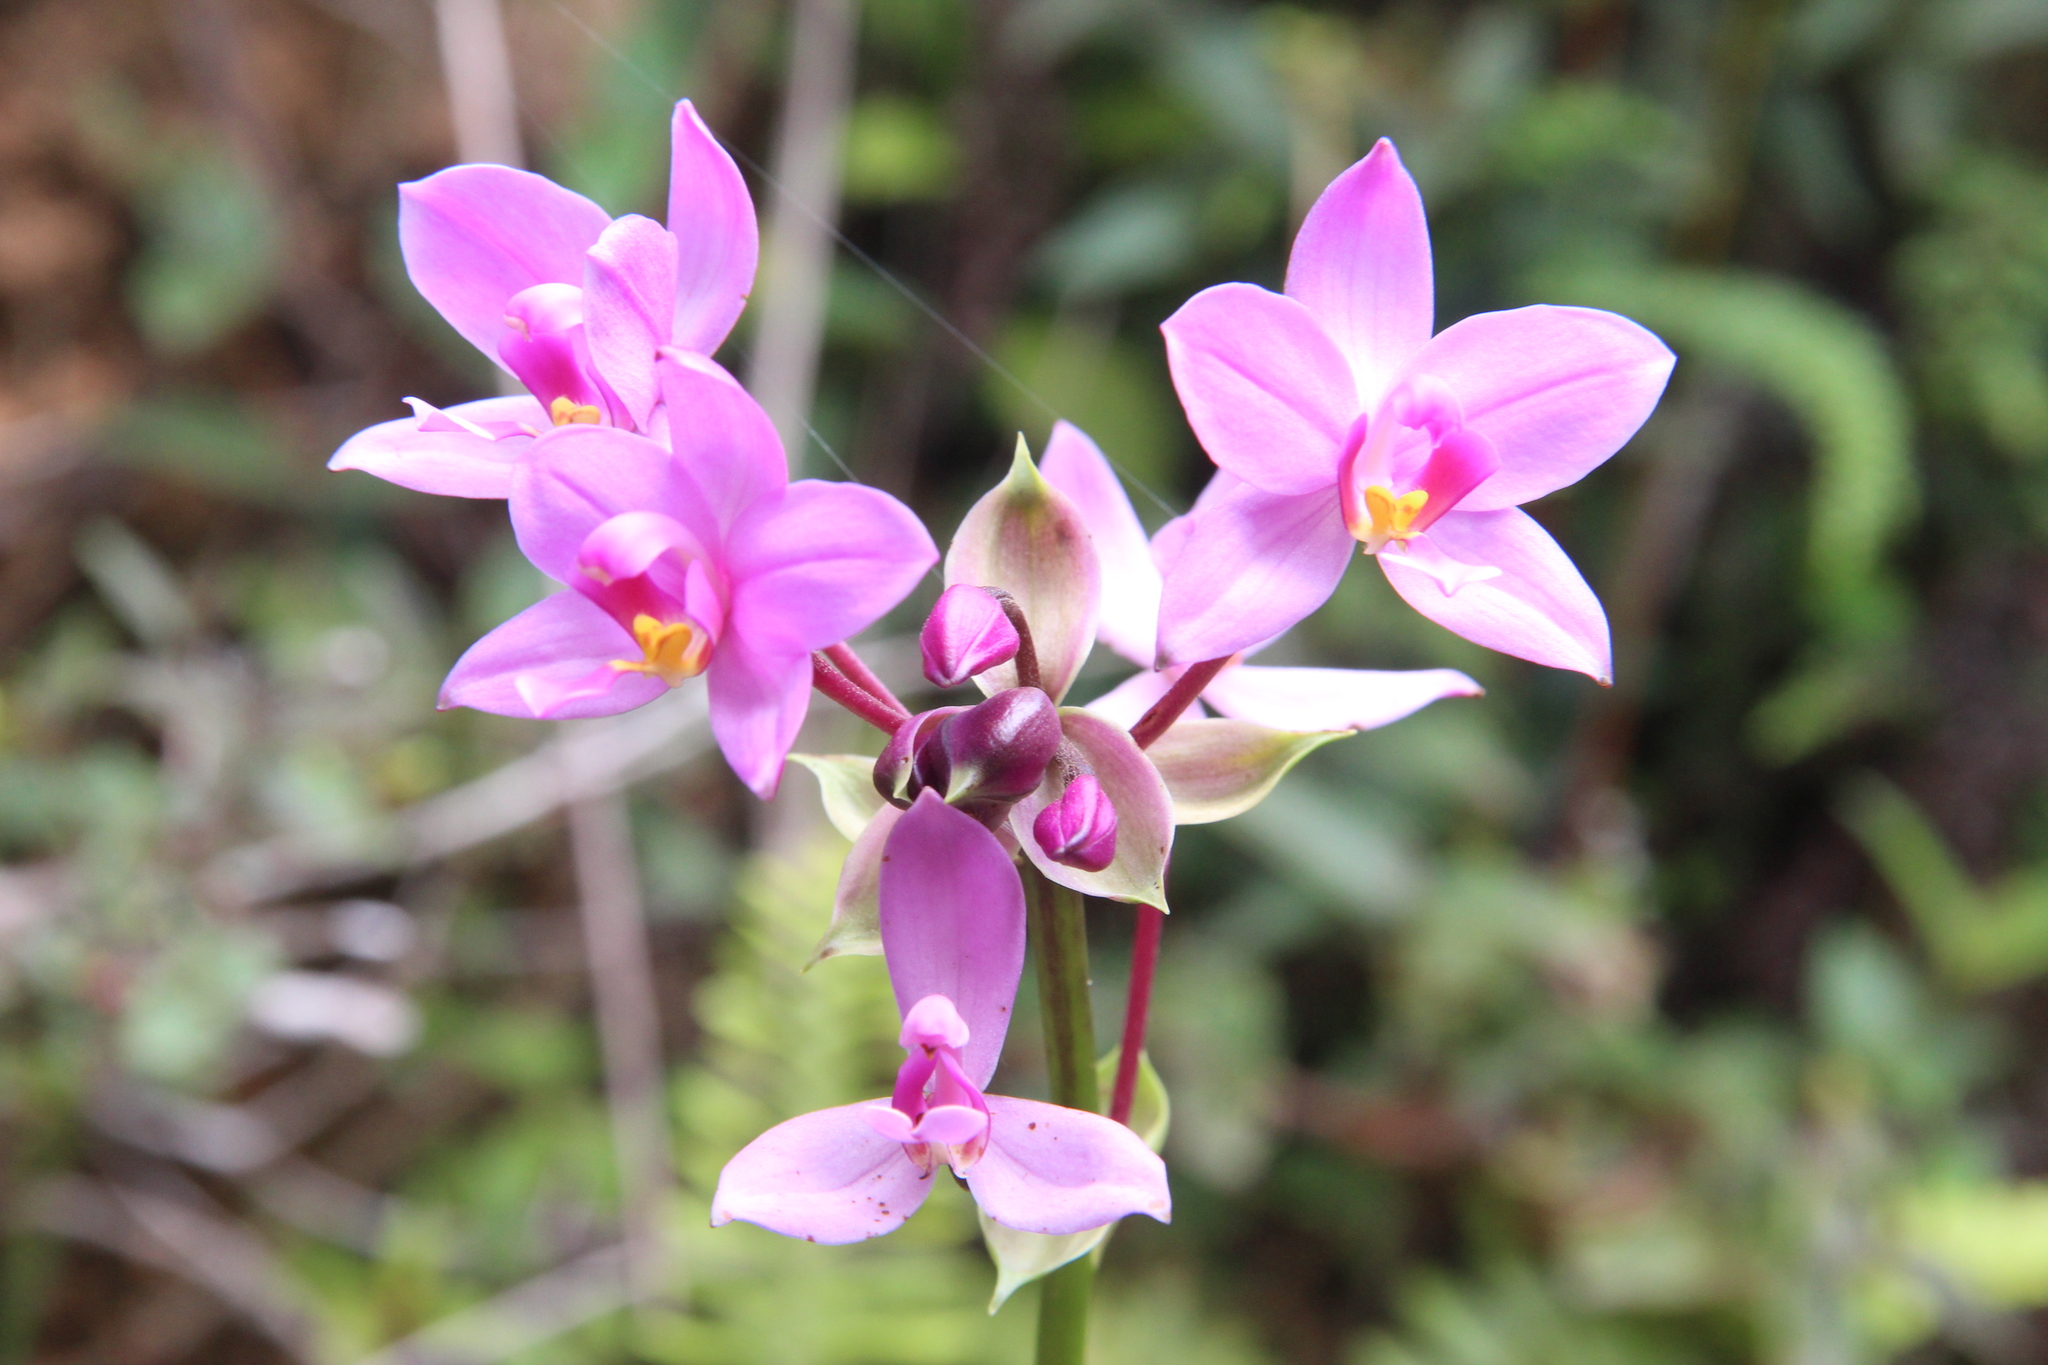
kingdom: Plantae
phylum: Tracheophyta
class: Liliopsida
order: Asparagales
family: Orchidaceae
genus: Spathoglottis
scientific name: Spathoglottis plicata
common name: Philippine ground orchid
